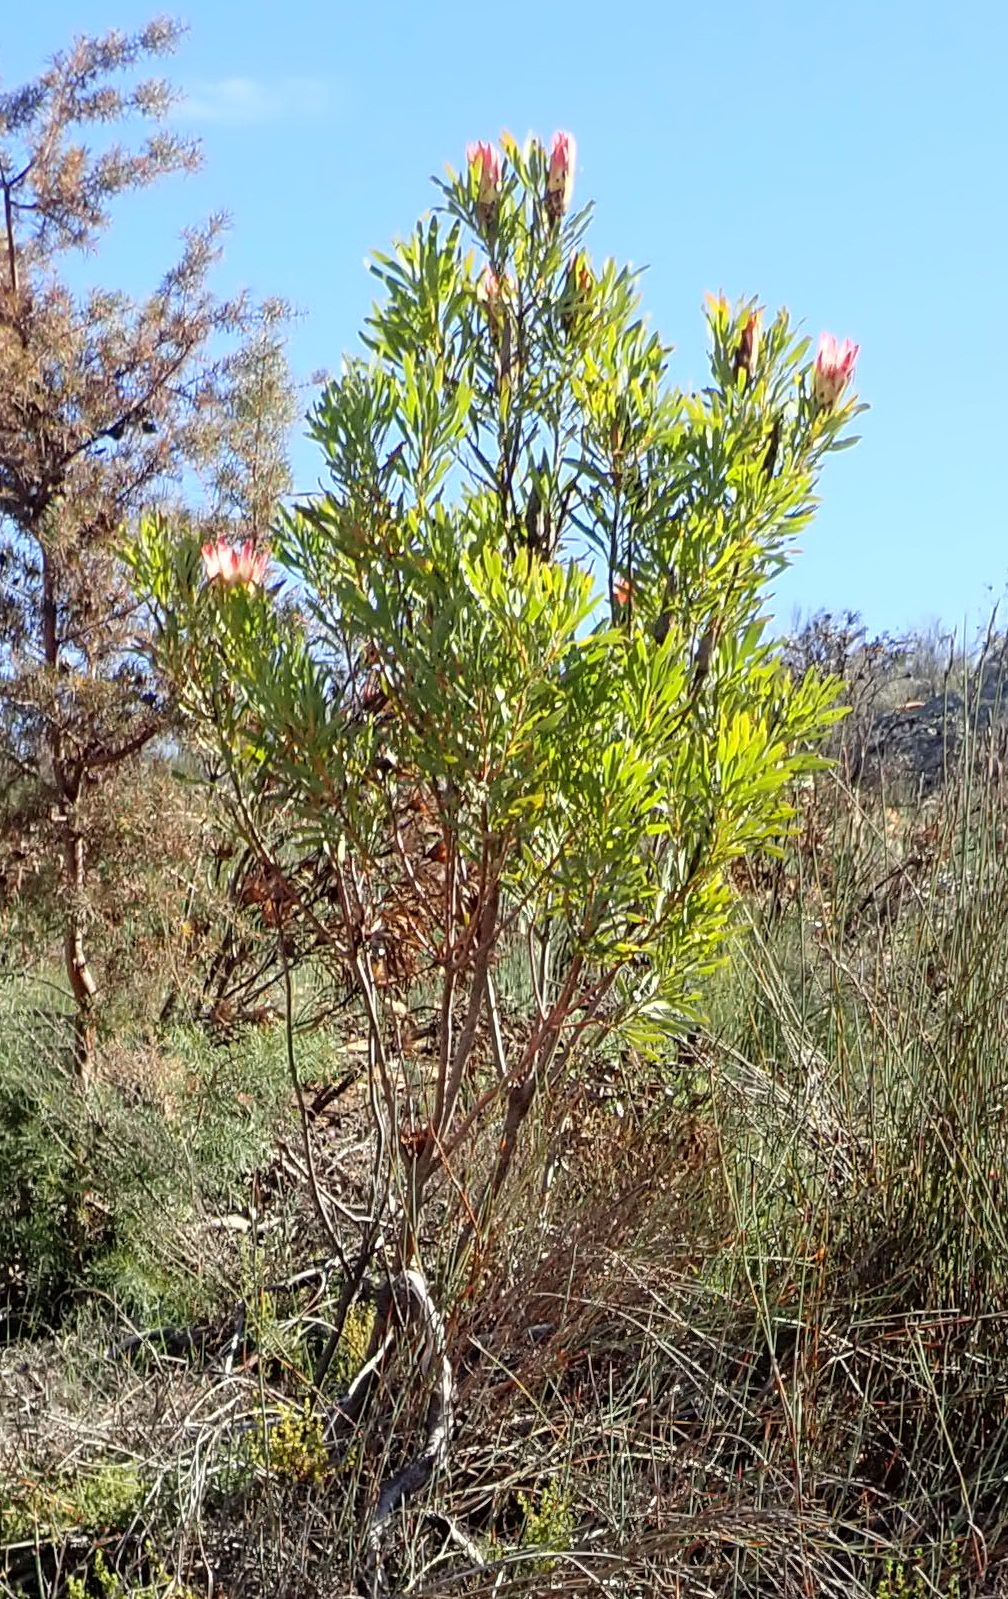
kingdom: Plantae
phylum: Tracheophyta
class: Magnoliopsida
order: Proteales
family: Proteaceae
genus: Protea
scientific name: Protea repens
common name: Sugarbush
